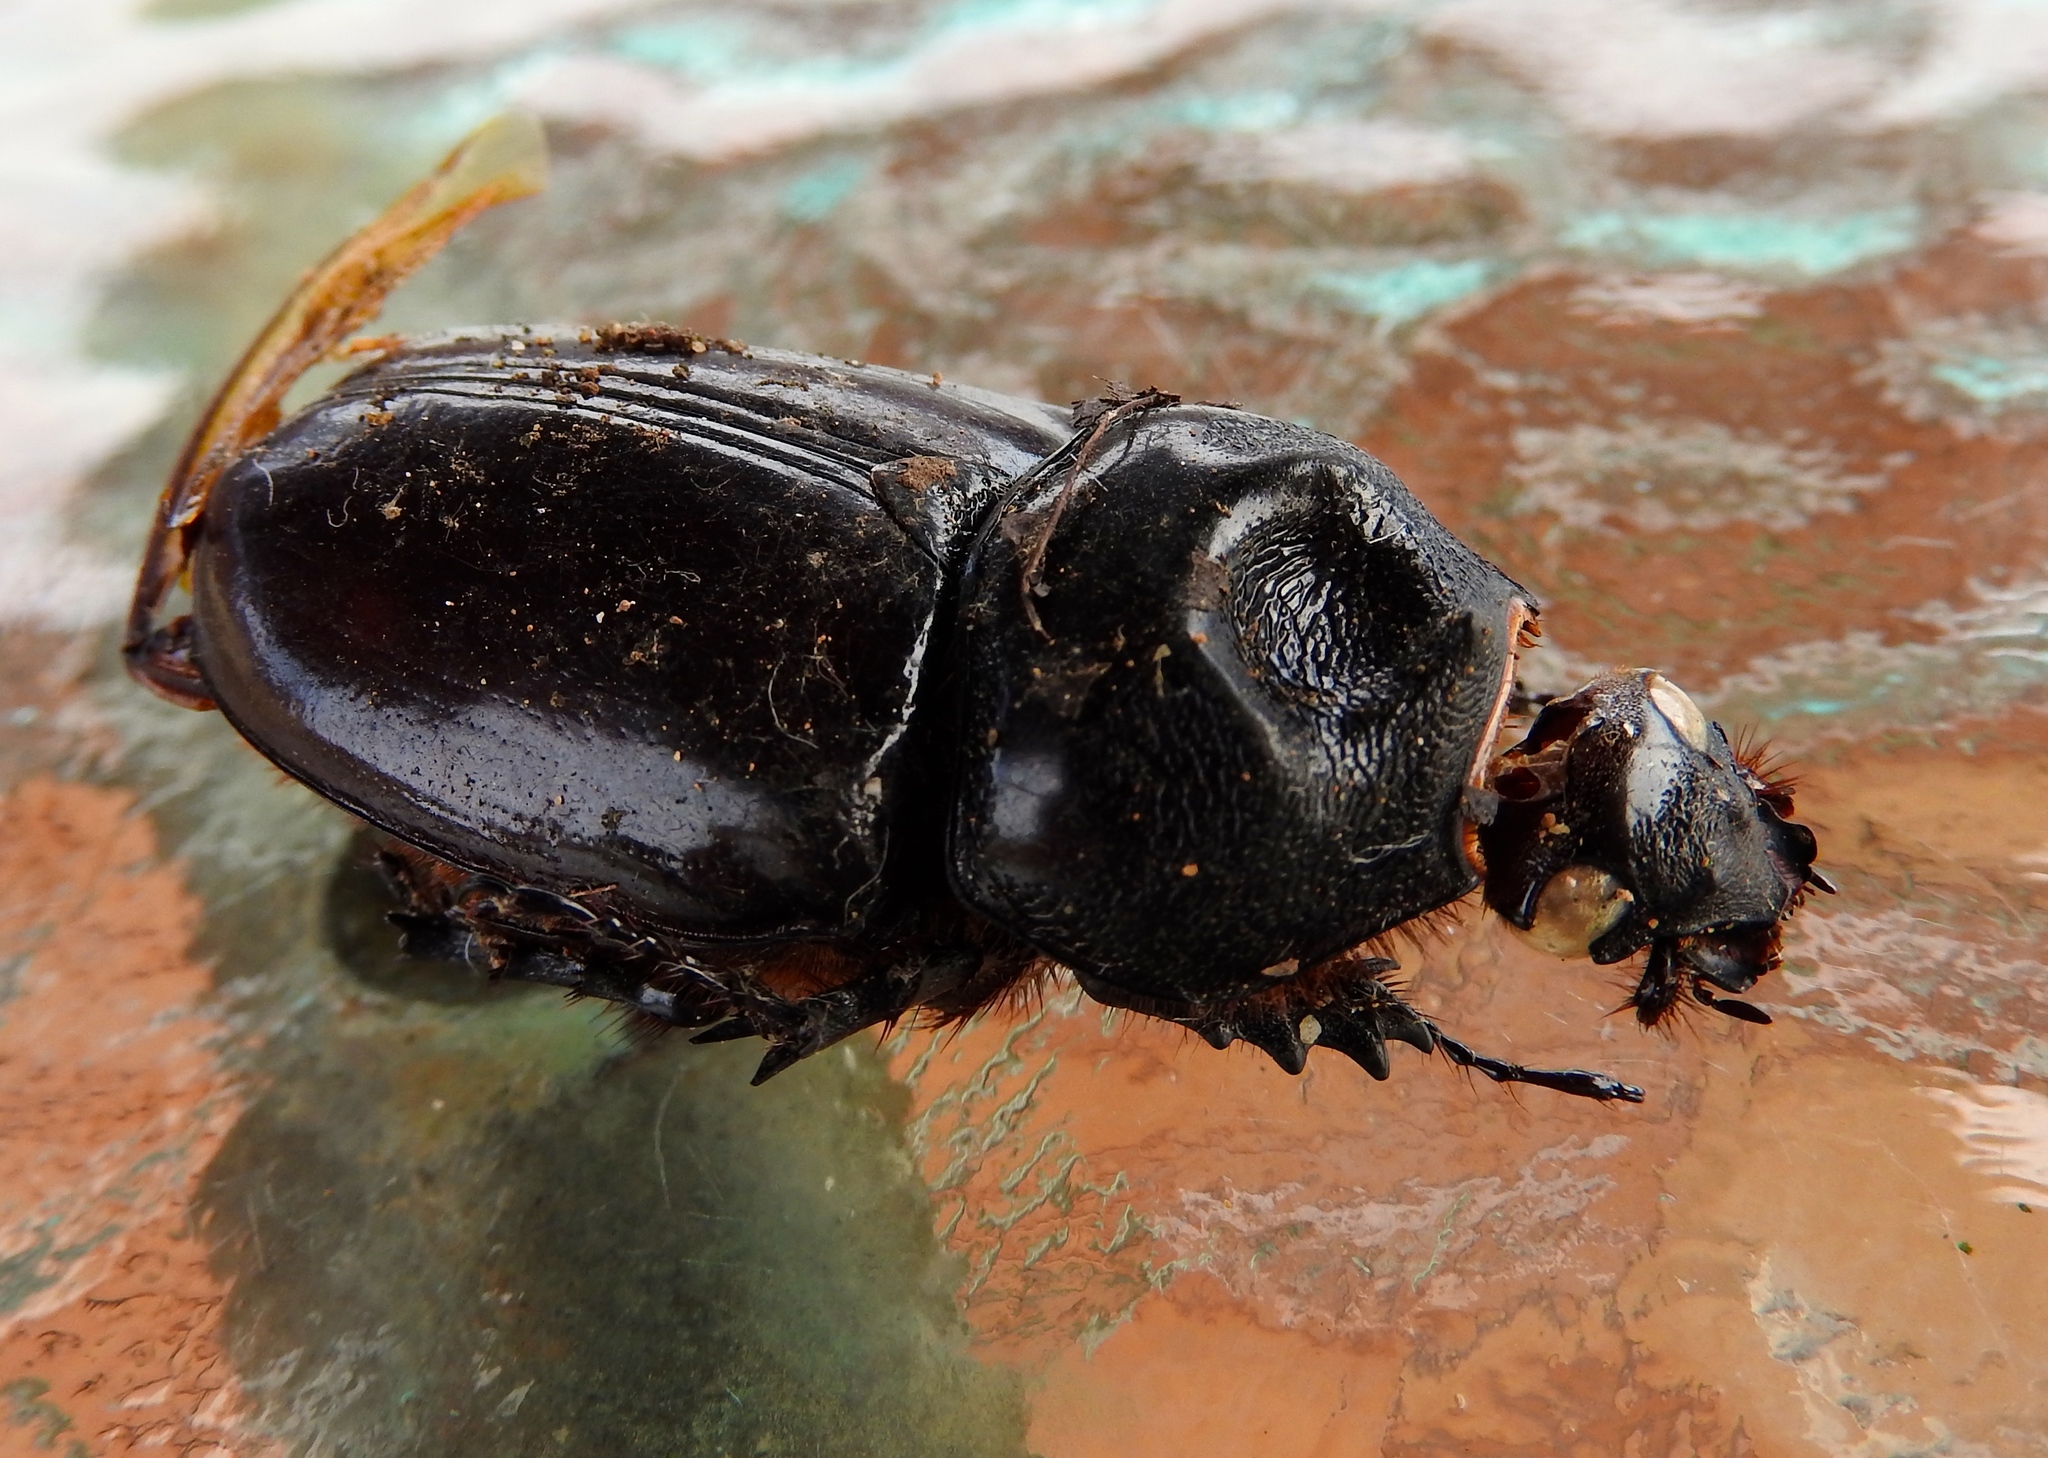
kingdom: Animalia
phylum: Arthropoda
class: Insecta
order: Coleoptera
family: Scarabaeidae
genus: Strategus
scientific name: Strategus
